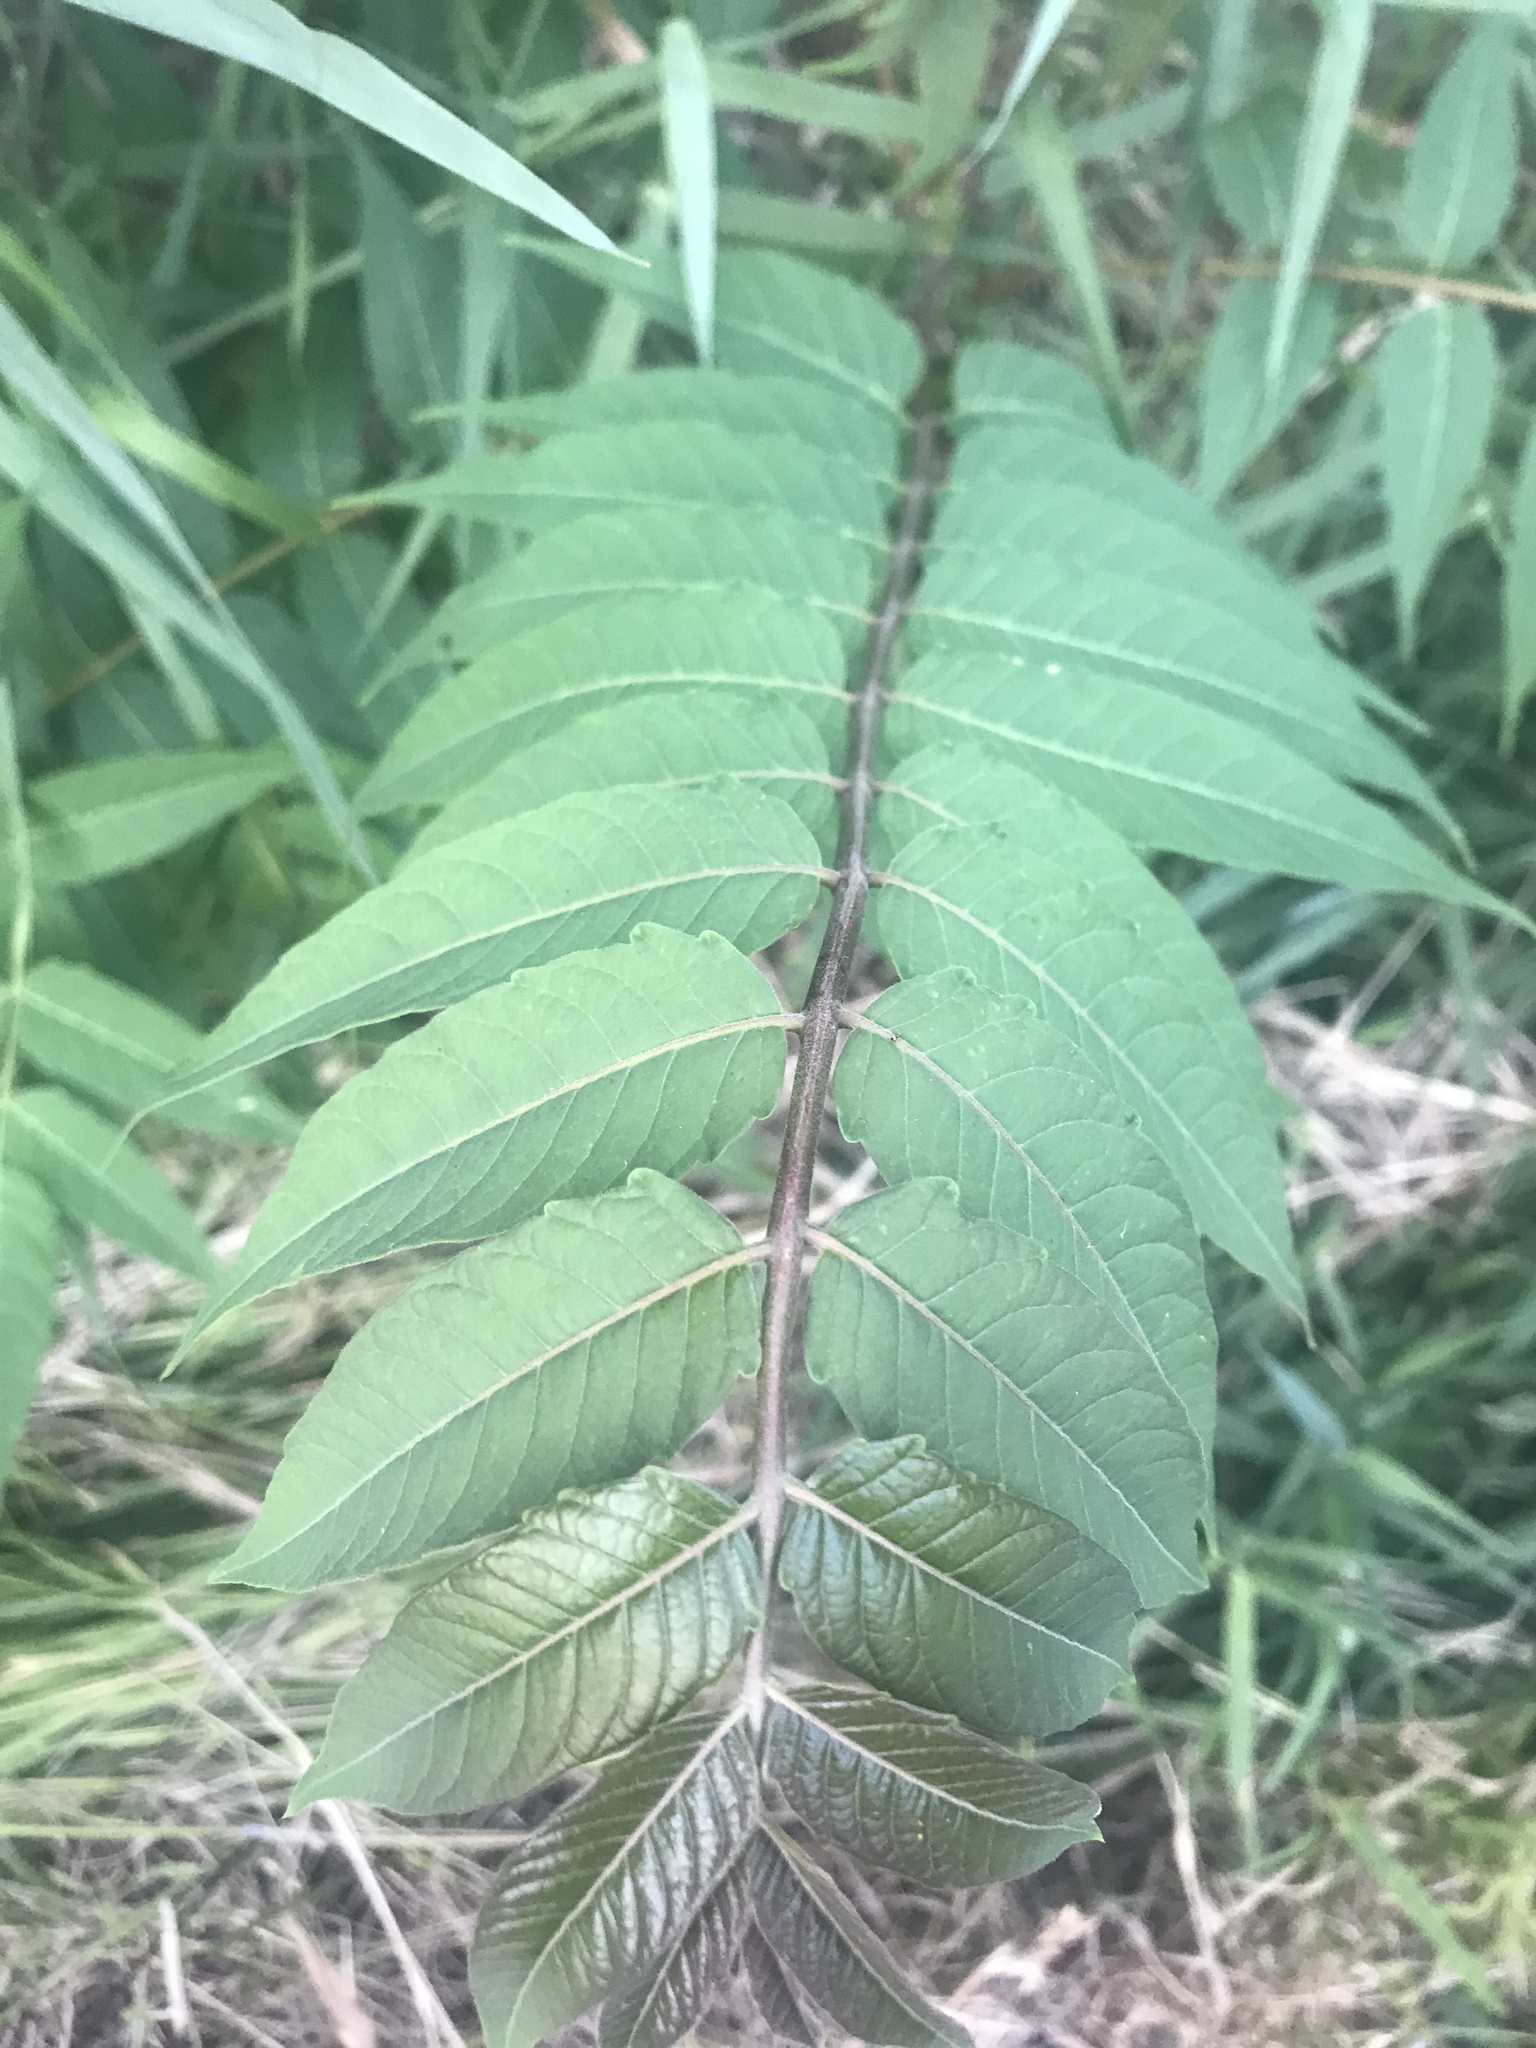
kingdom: Plantae
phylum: Tracheophyta
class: Magnoliopsida
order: Sapindales
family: Simaroubaceae
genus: Ailanthus
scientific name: Ailanthus altissima
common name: Tree-of-heaven
